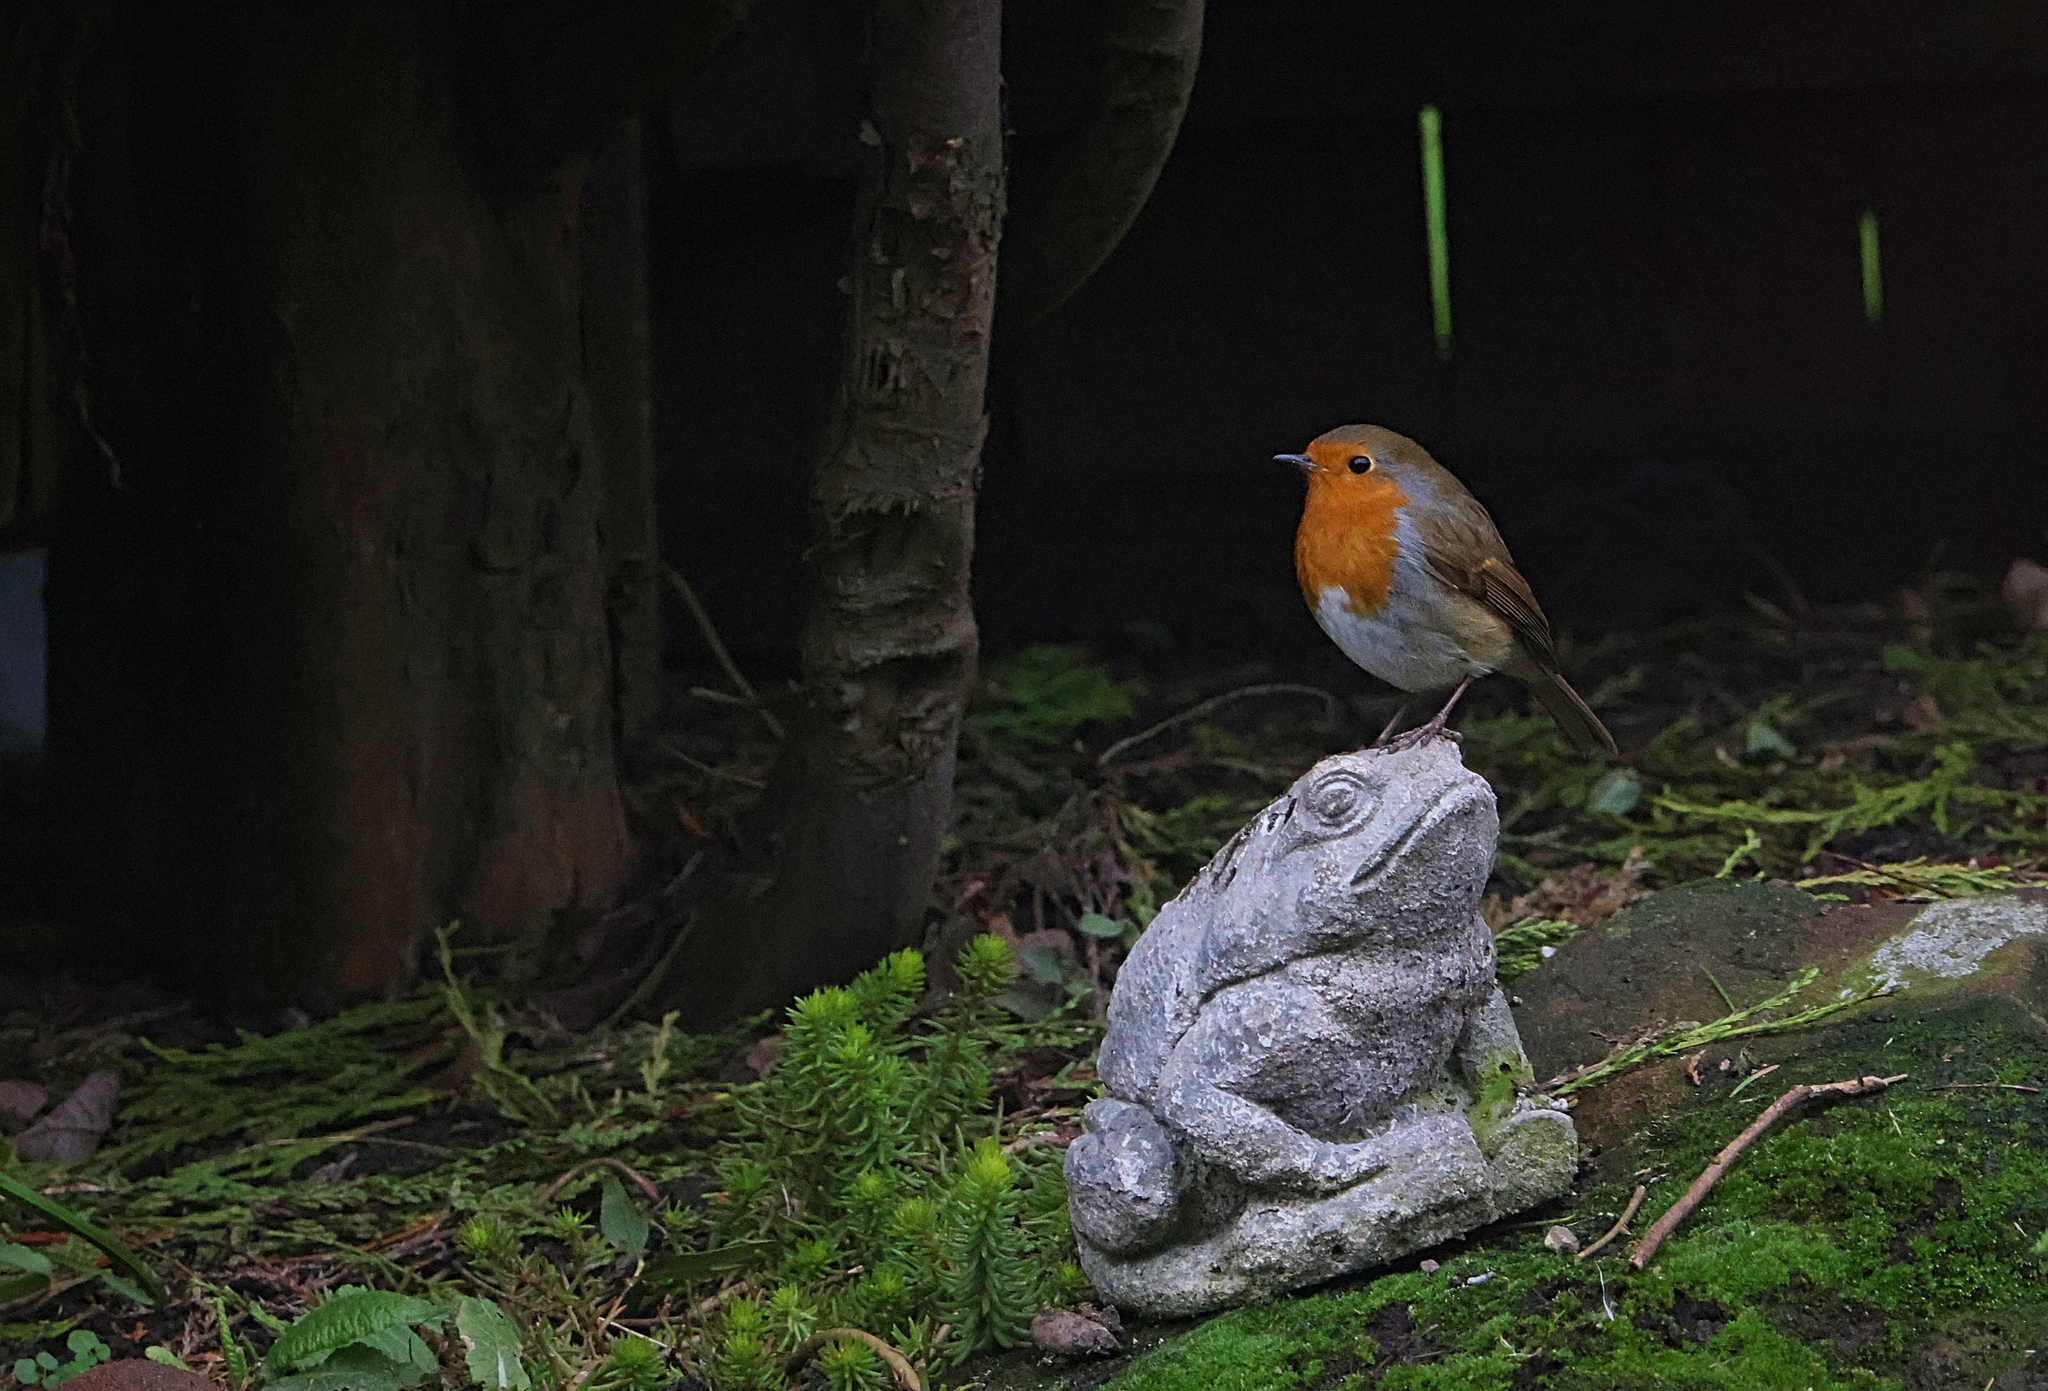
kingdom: Animalia
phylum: Chordata
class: Aves
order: Passeriformes
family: Muscicapidae
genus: Erithacus
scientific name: Erithacus rubecula
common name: European robin
